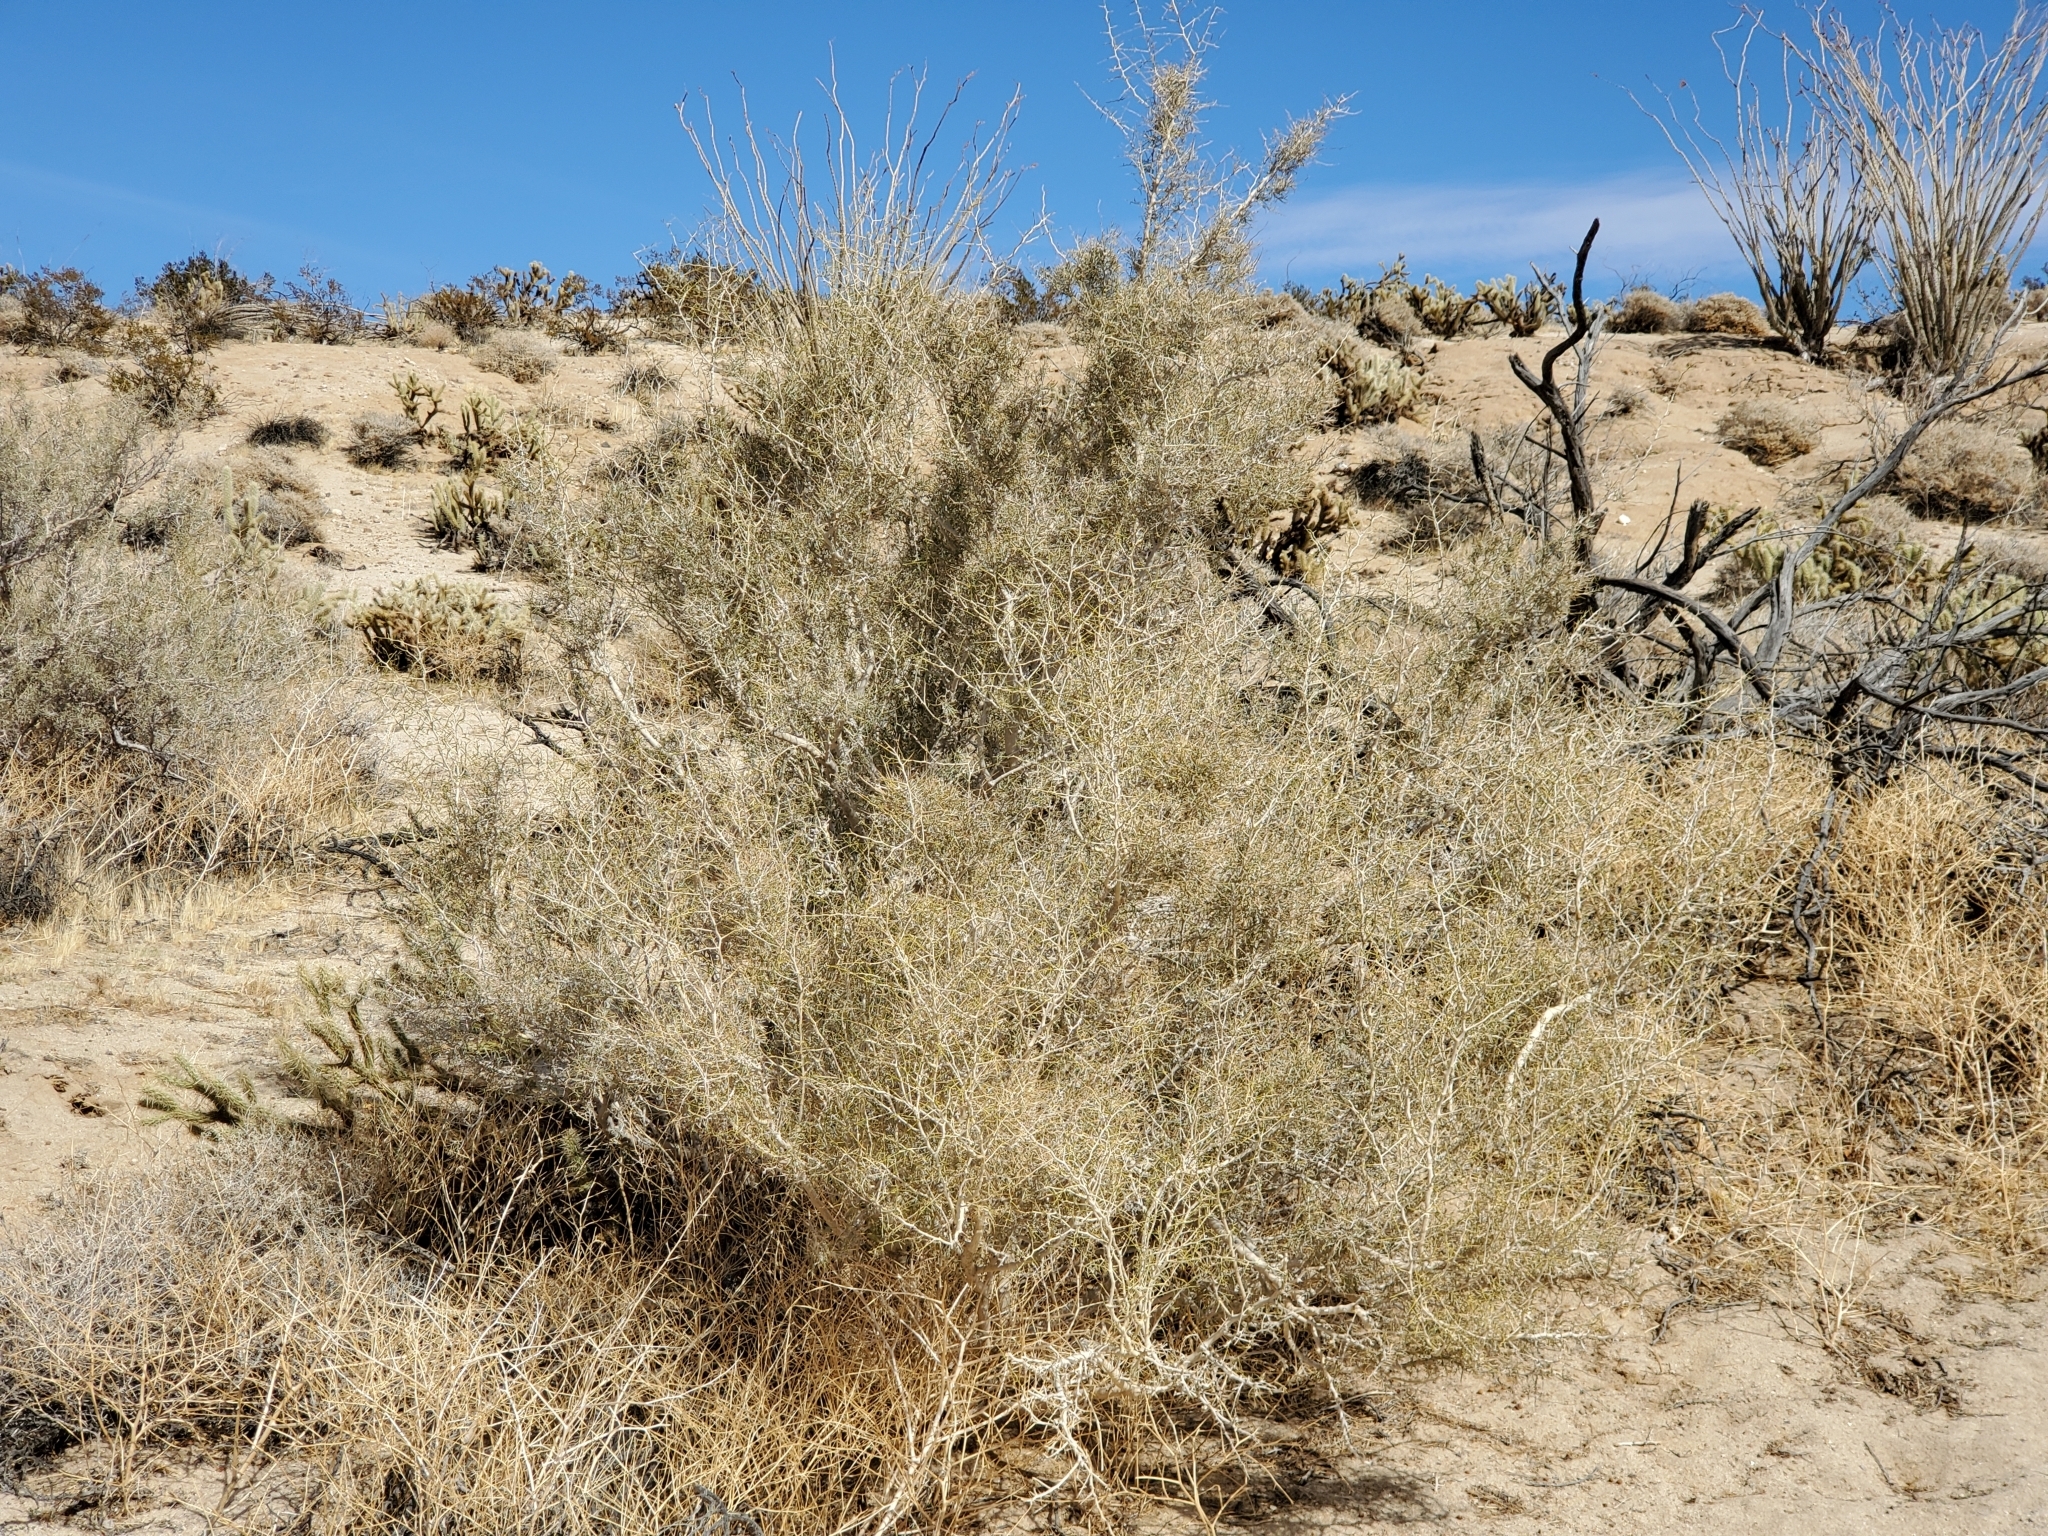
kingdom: Plantae
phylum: Tracheophyta
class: Magnoliopsida
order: Fabales
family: Fabaceae
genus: Psorothamnus
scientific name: Psorothamnus schottii
